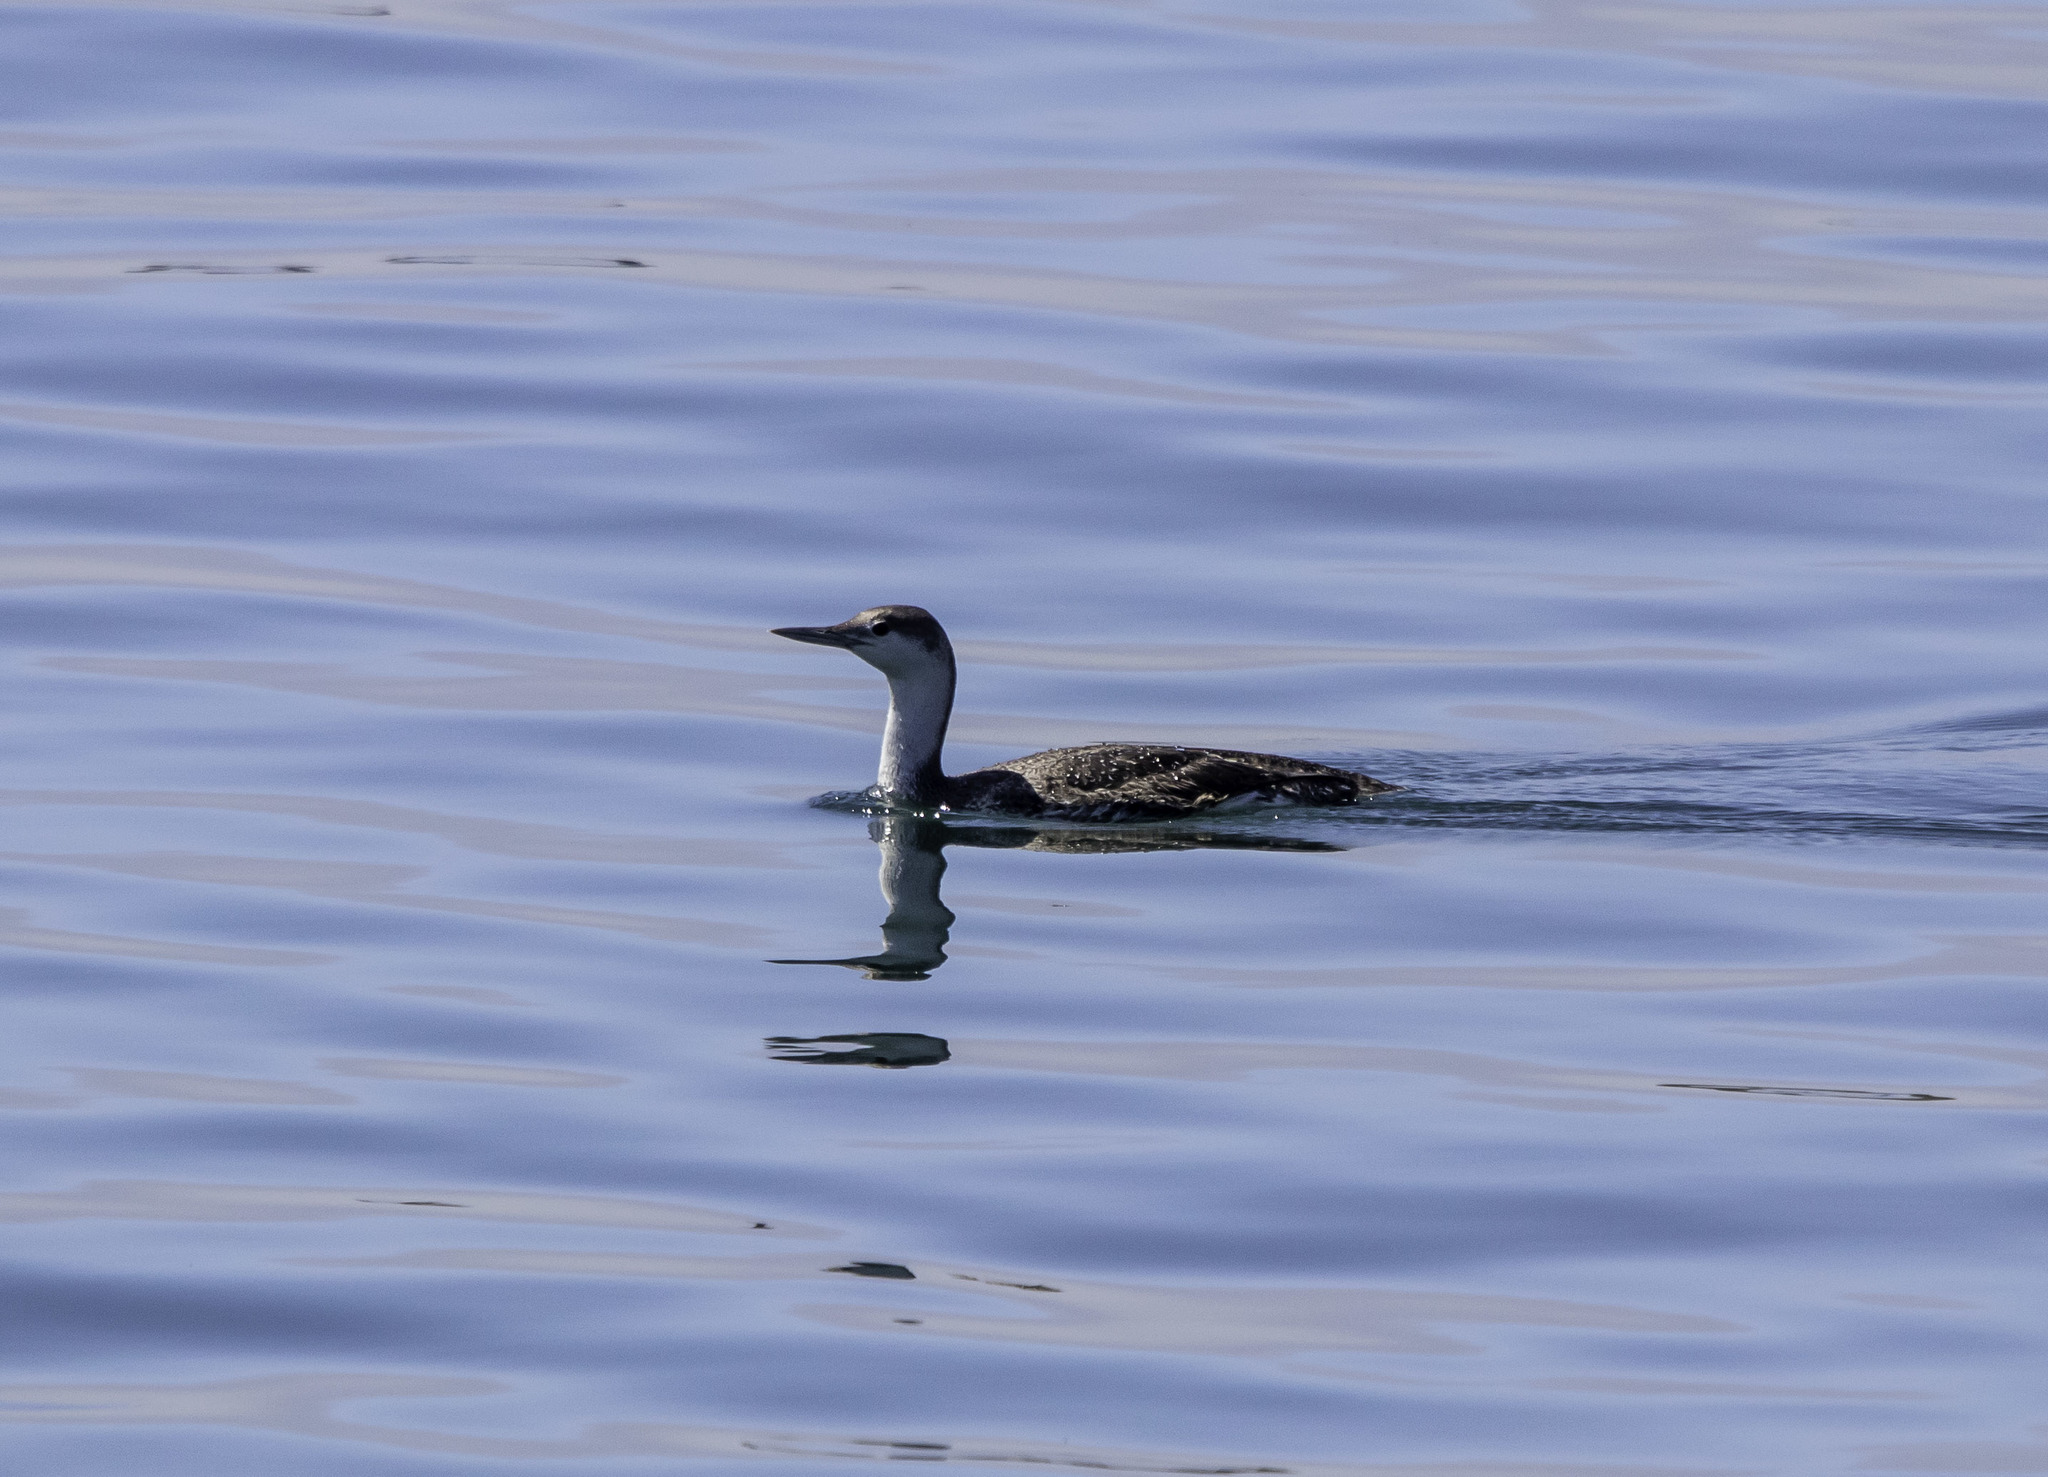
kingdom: Animalia
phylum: Chordata
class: Aves
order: Gaviiformes
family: Gaviidae
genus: Gavia
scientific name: Gavia stellata
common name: Red-throated loon
